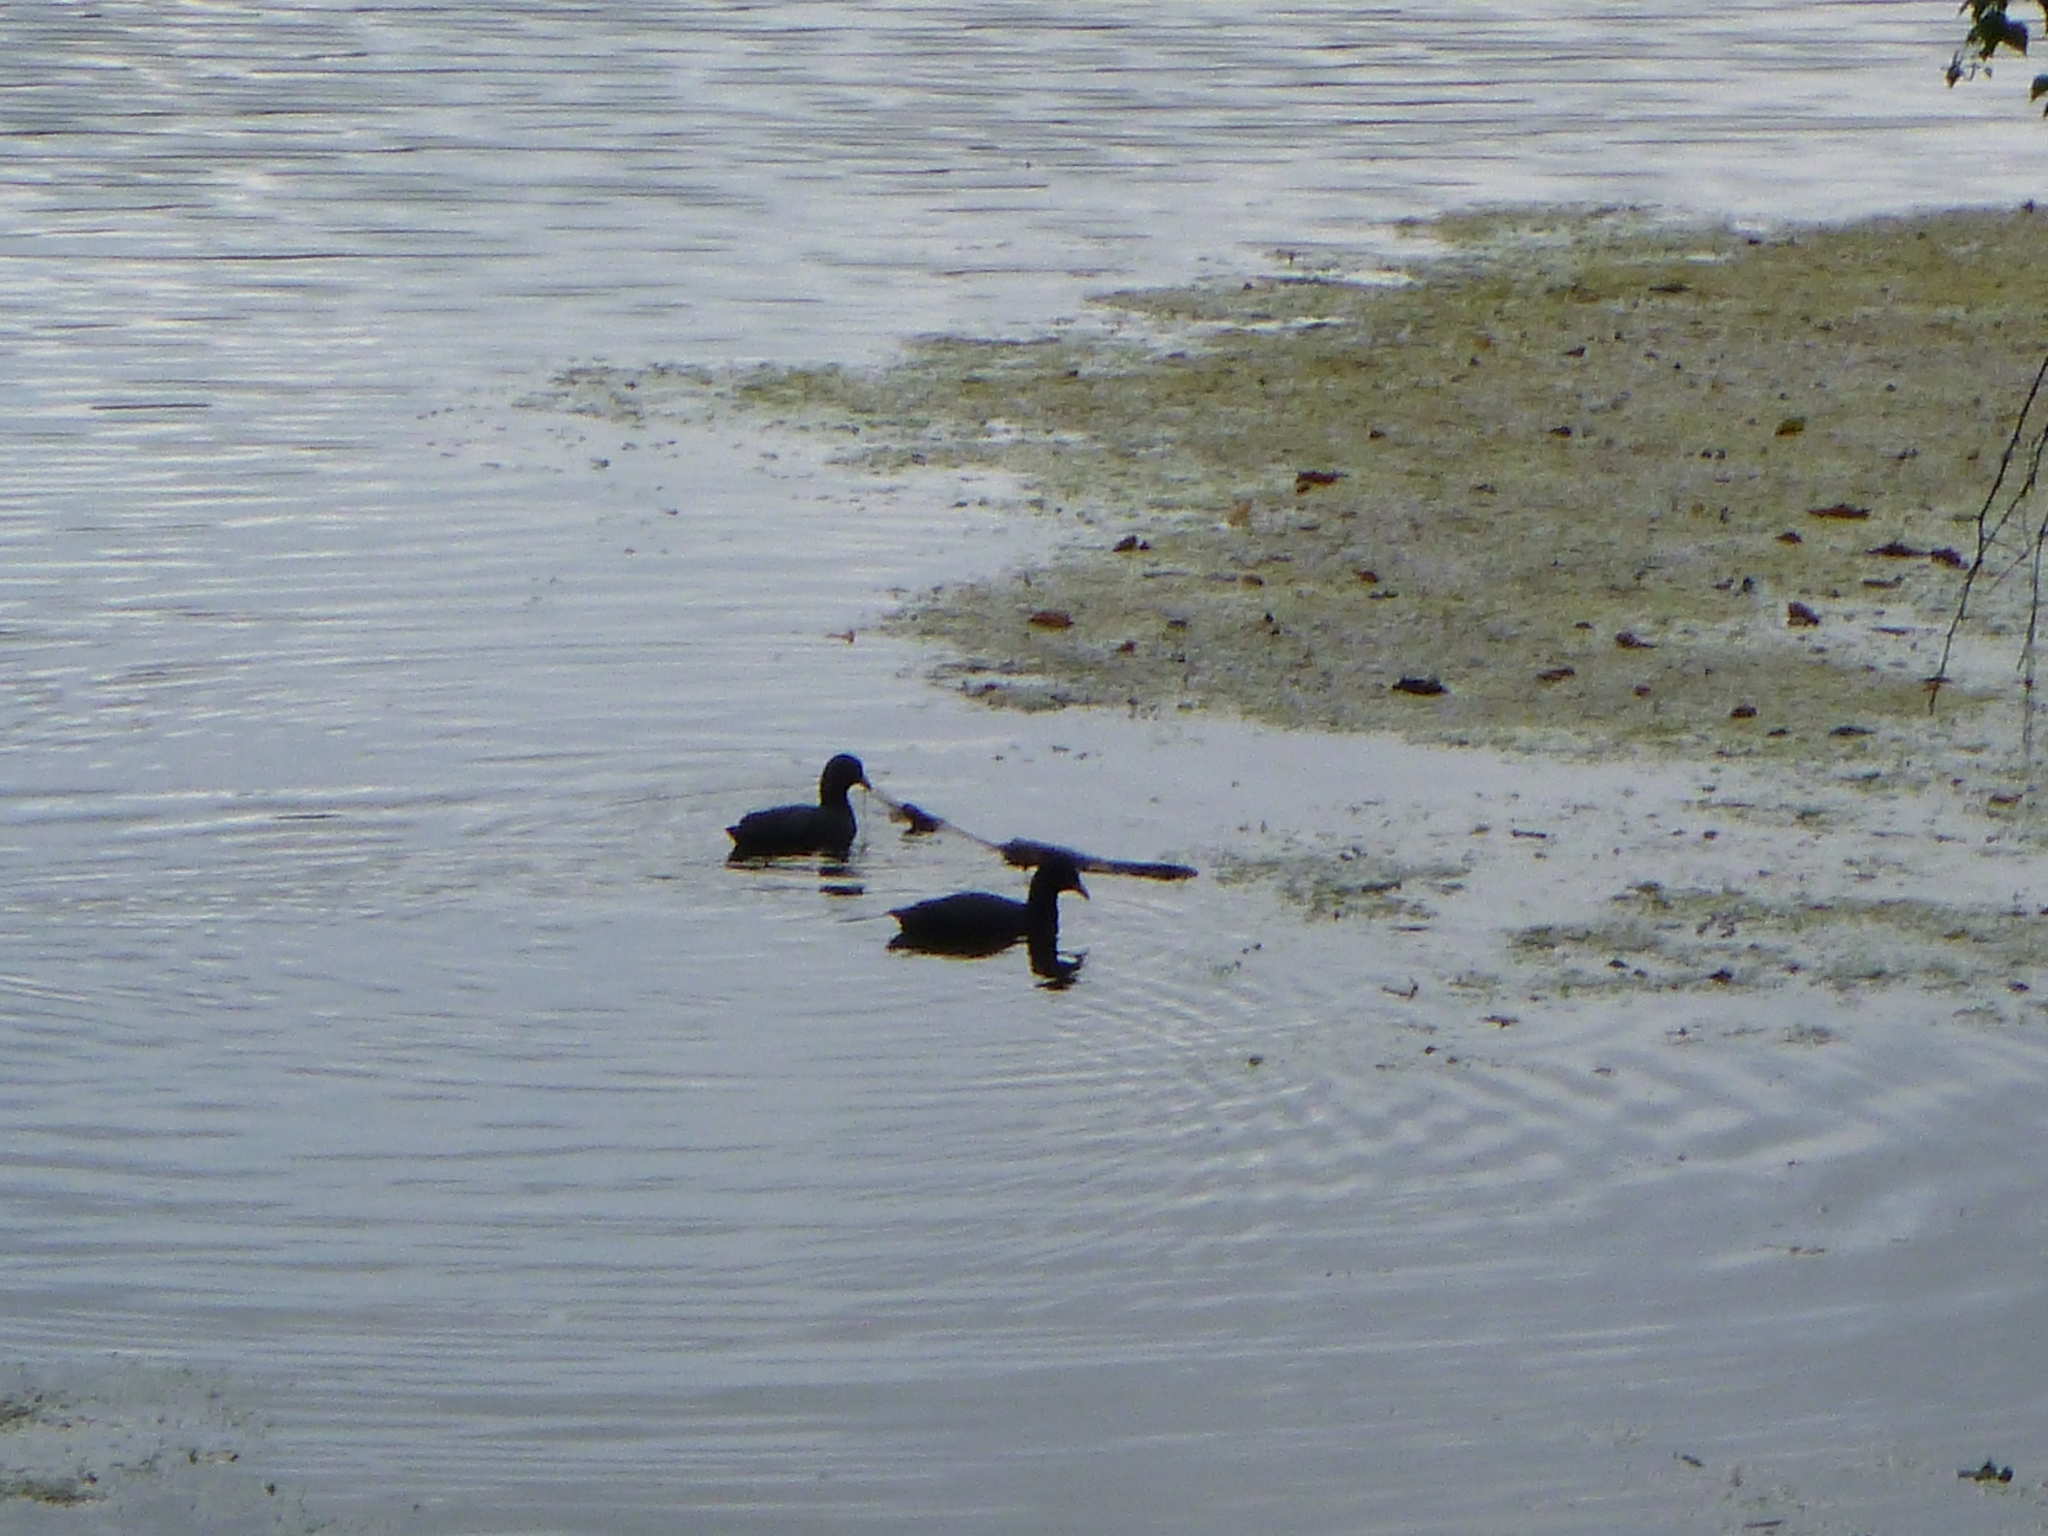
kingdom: Animalia
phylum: Chordata
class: Aves
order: Gruiformes
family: Rallidae
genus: Fulica
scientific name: Fulica atra
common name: Eurasian coot
